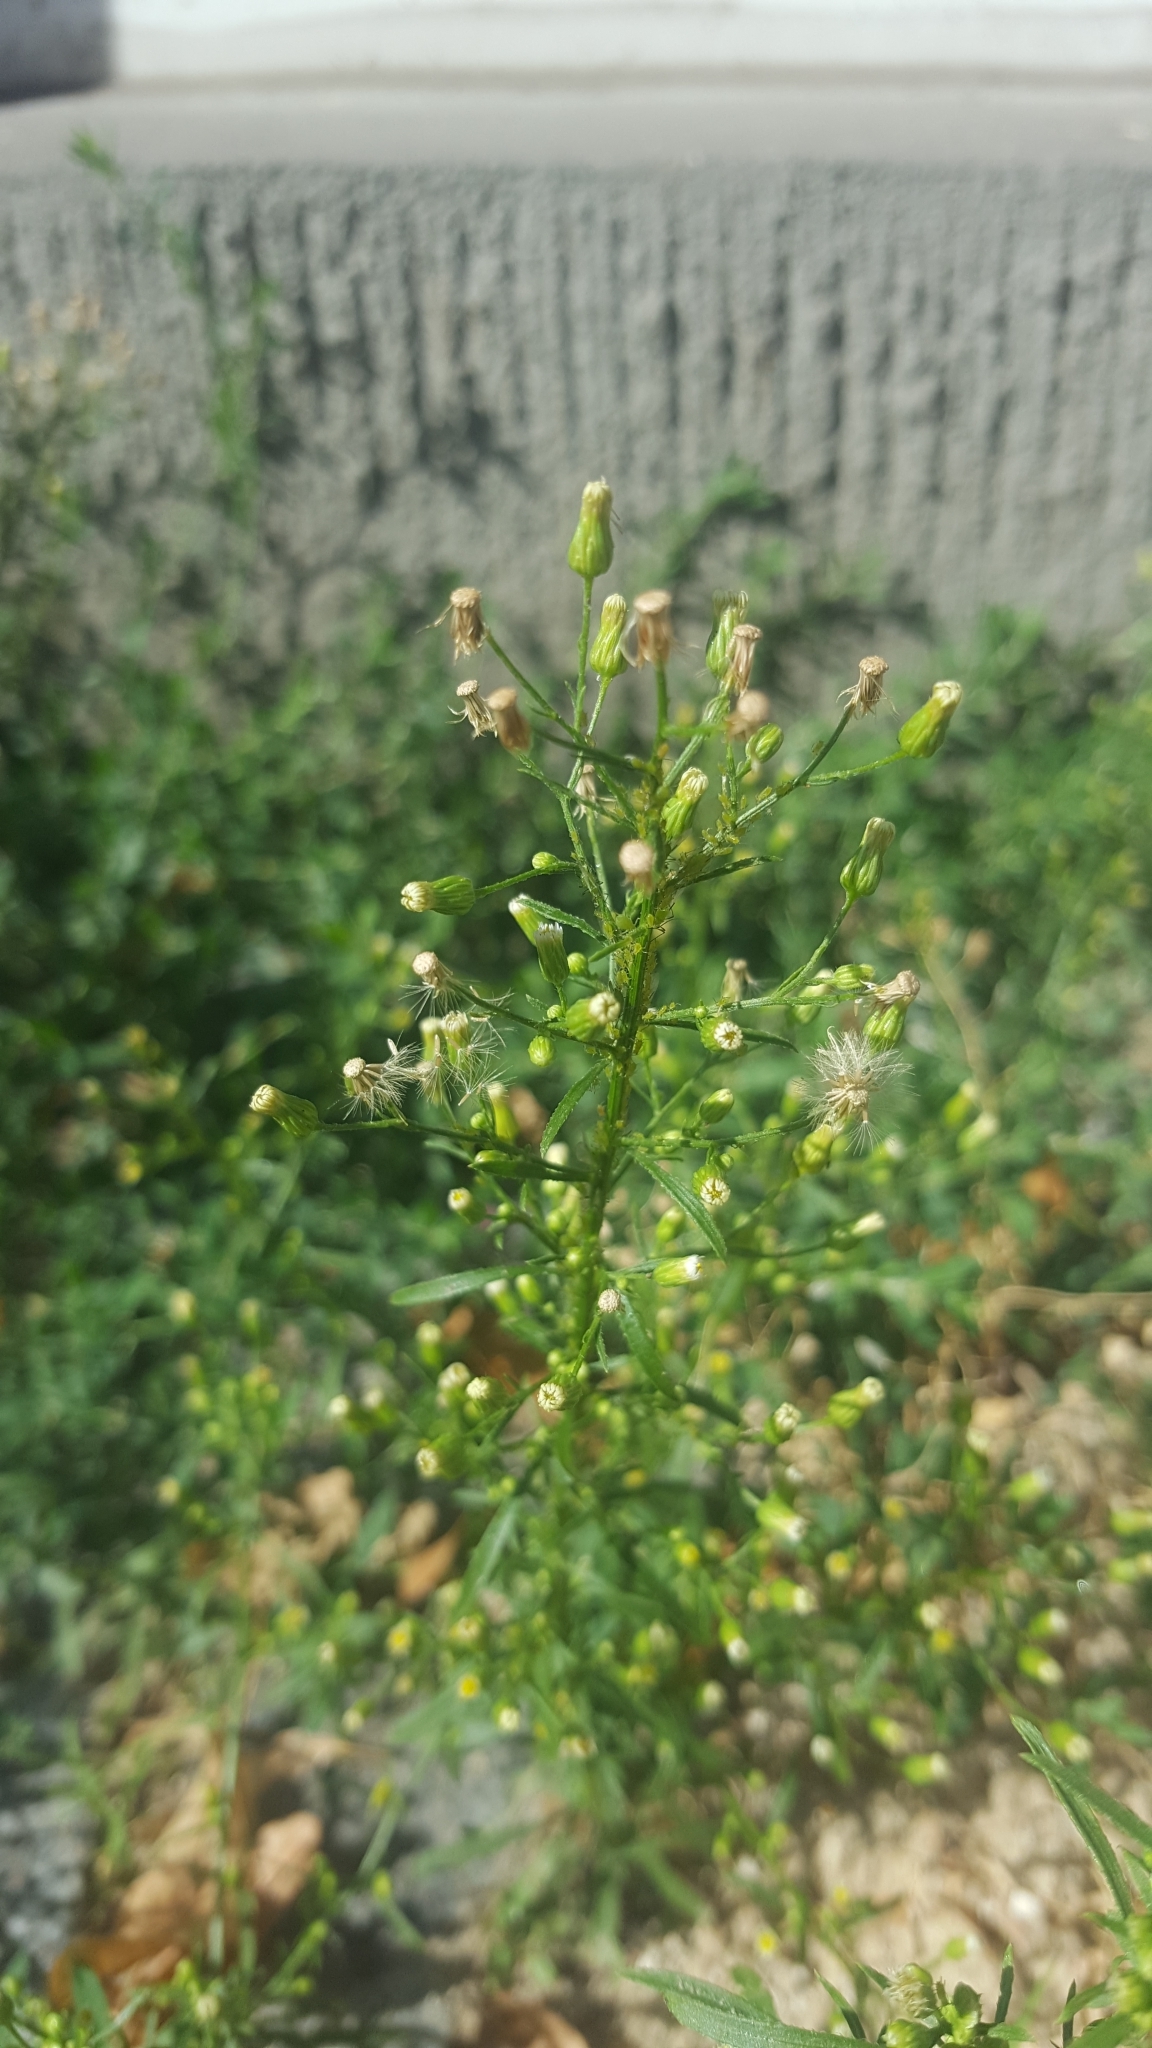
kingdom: Plantae
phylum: Tracheophyta
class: Magnoliopsida
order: Asterales
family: Asteraceae
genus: Erigeron
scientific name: Erigeron canadensis
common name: Canadian fleabane
